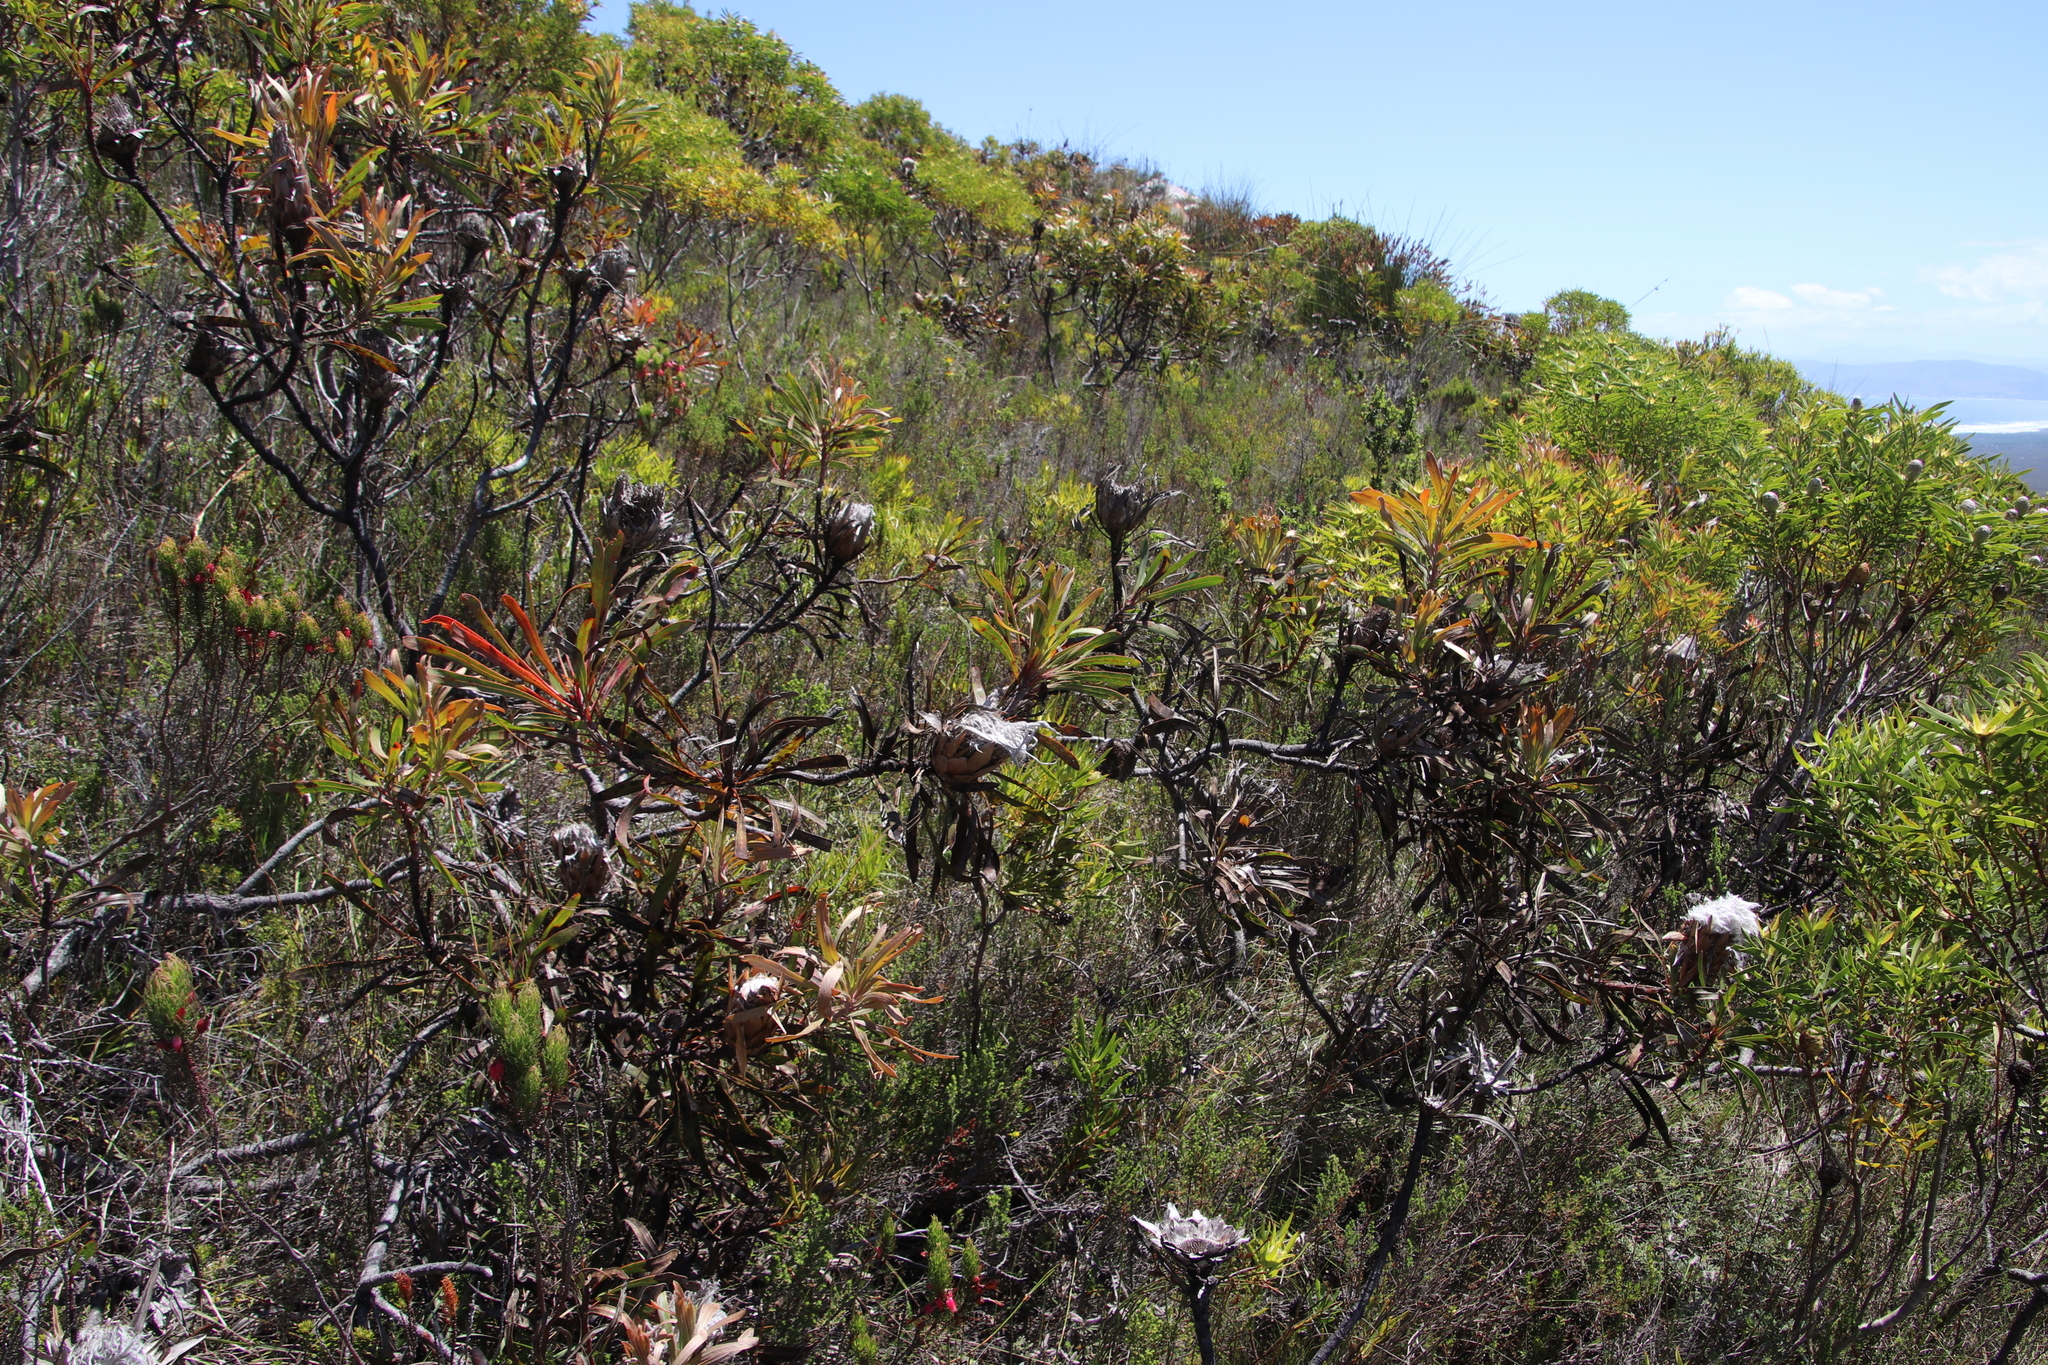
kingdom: Plantae
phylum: Tracheophyta
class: Magnoliopsida
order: Proteales
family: Proteaceae
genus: Protea
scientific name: Protea longifolia
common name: Long-leaf sugarbush
